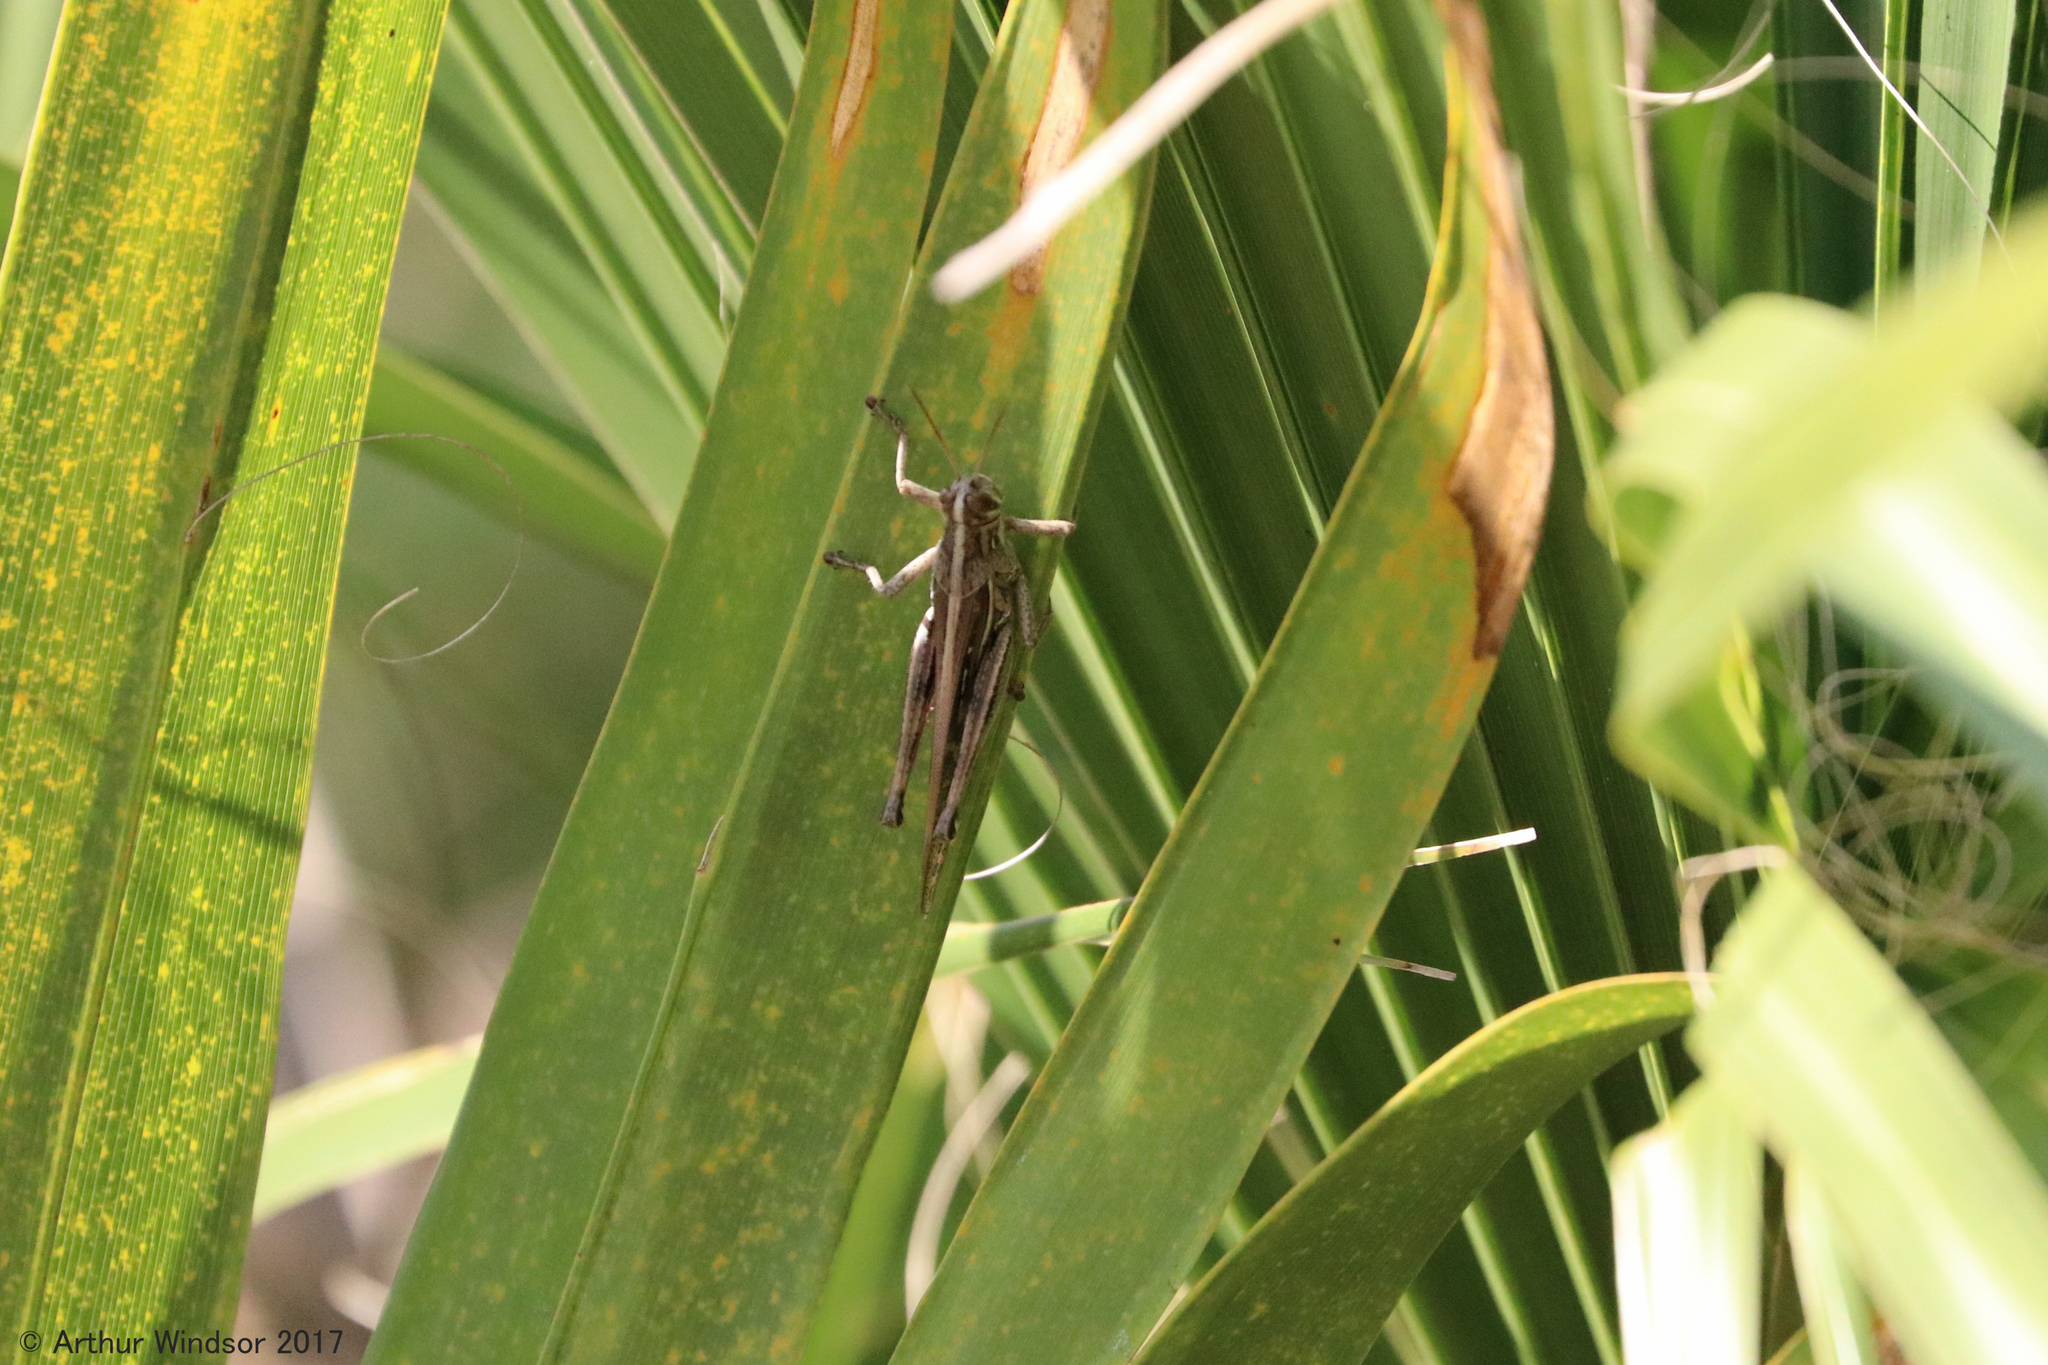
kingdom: Animalia
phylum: Arthropoda
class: Insecta
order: Orthoptera
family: Acrididae
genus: Schistocerca
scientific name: Schistocerca americana
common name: American bird locust
